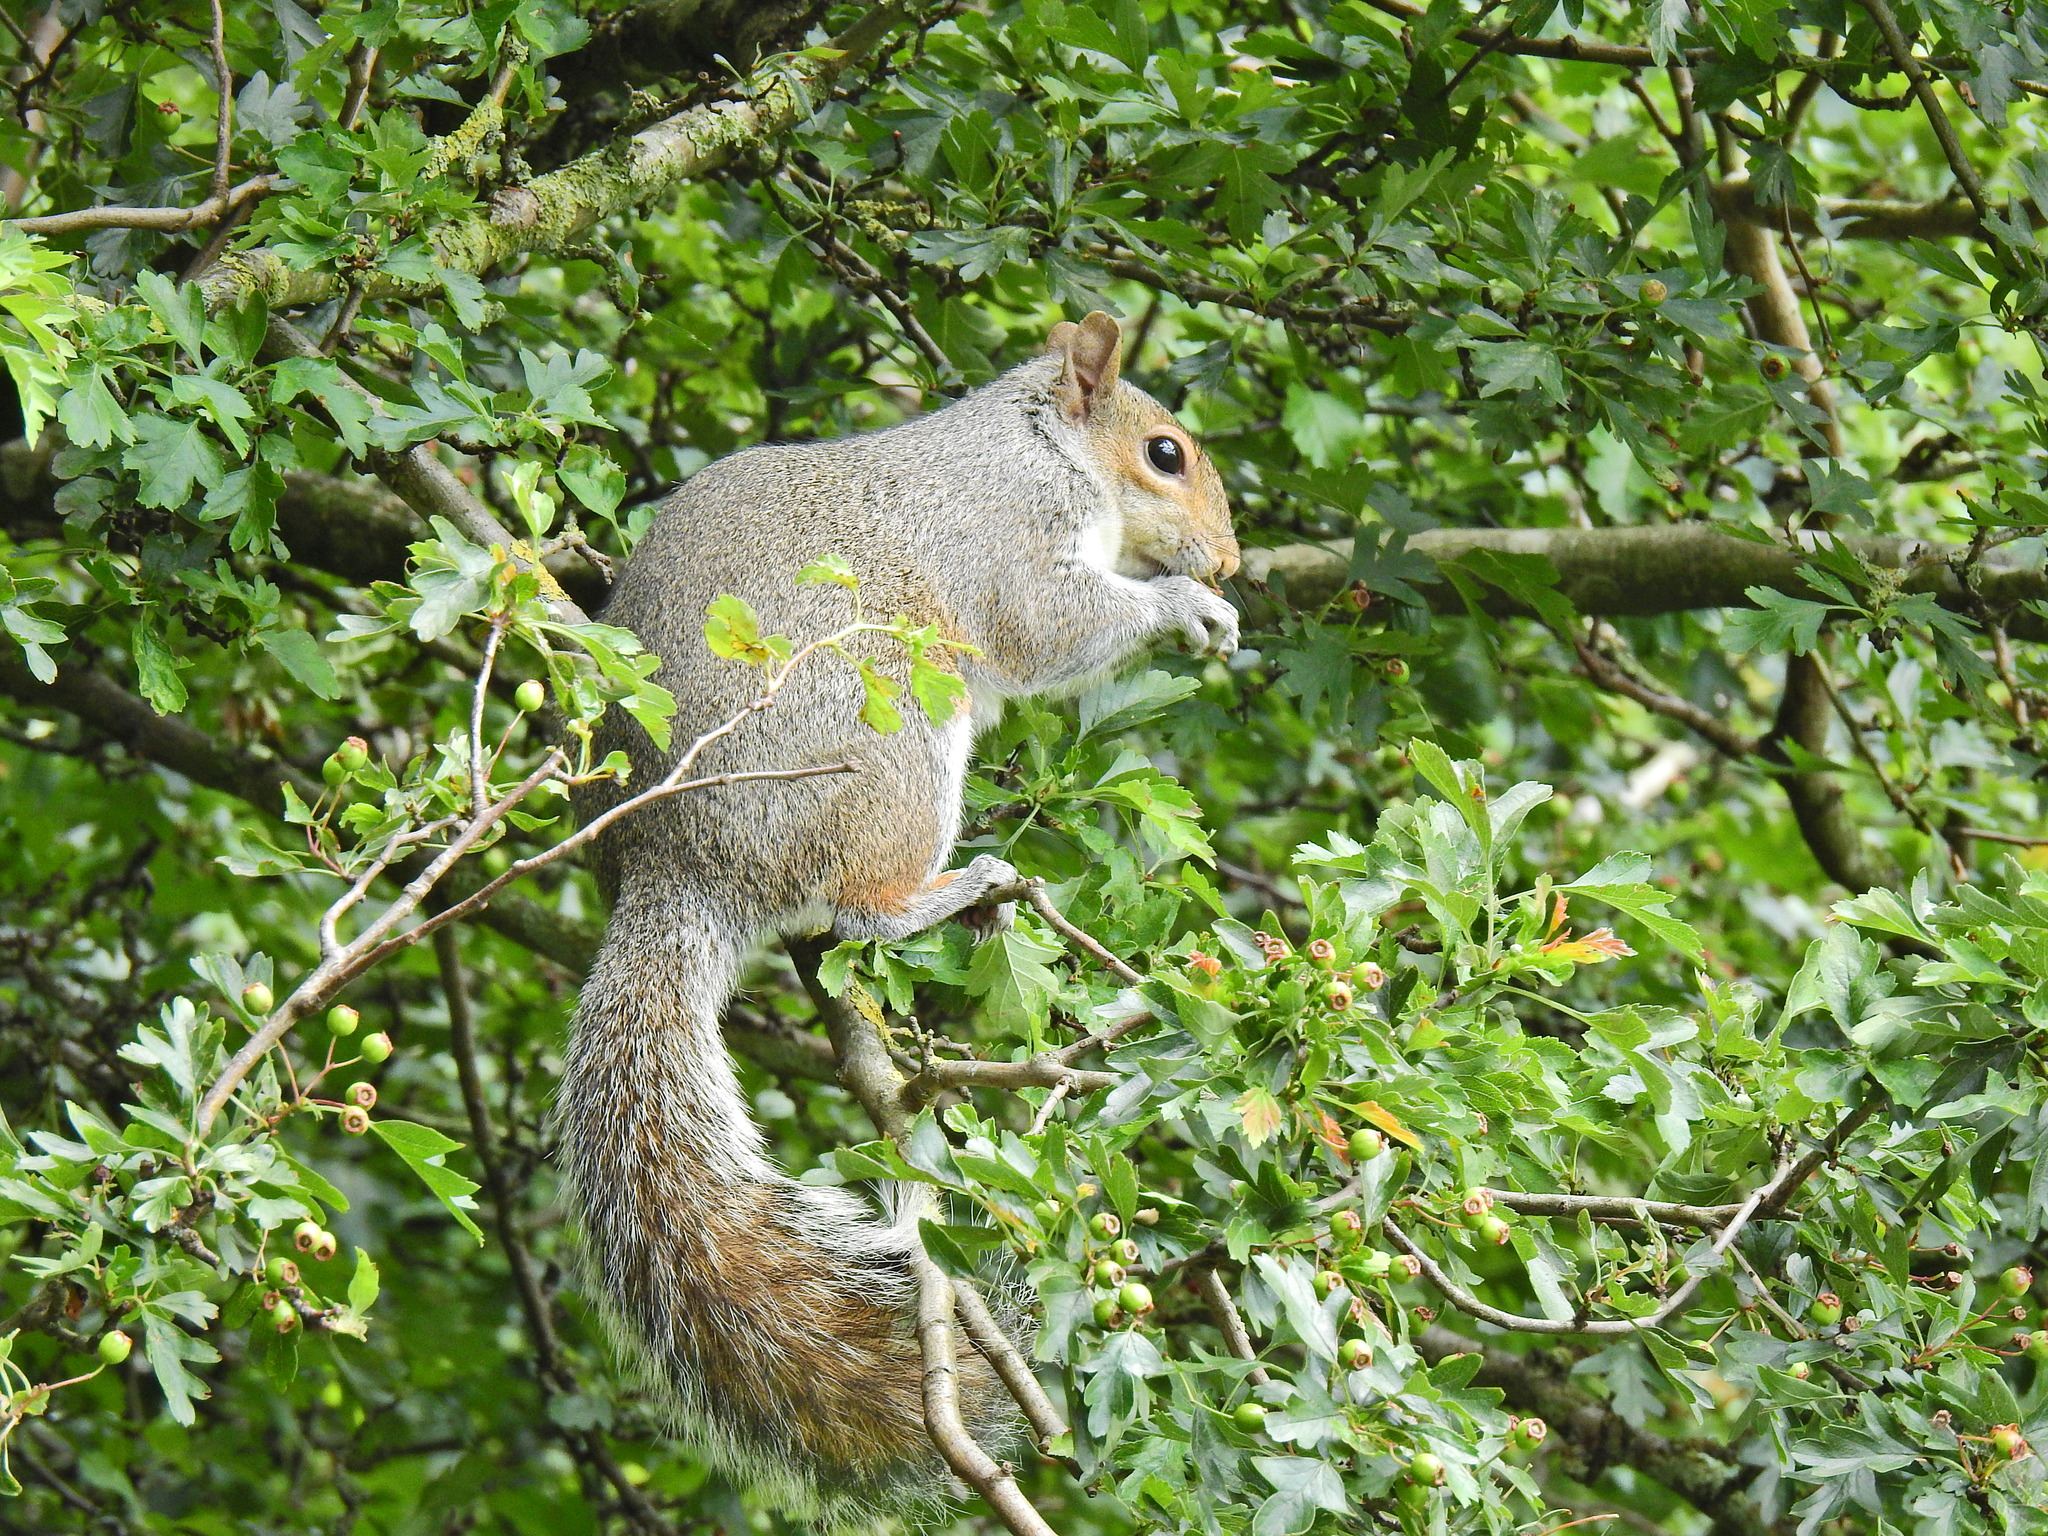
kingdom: Animalia
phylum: Chordata
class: Mammalia
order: Rodentia
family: Sciuridae
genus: Sciurus
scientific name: Sciurus carolinensis
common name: Eastern gray squirrel
